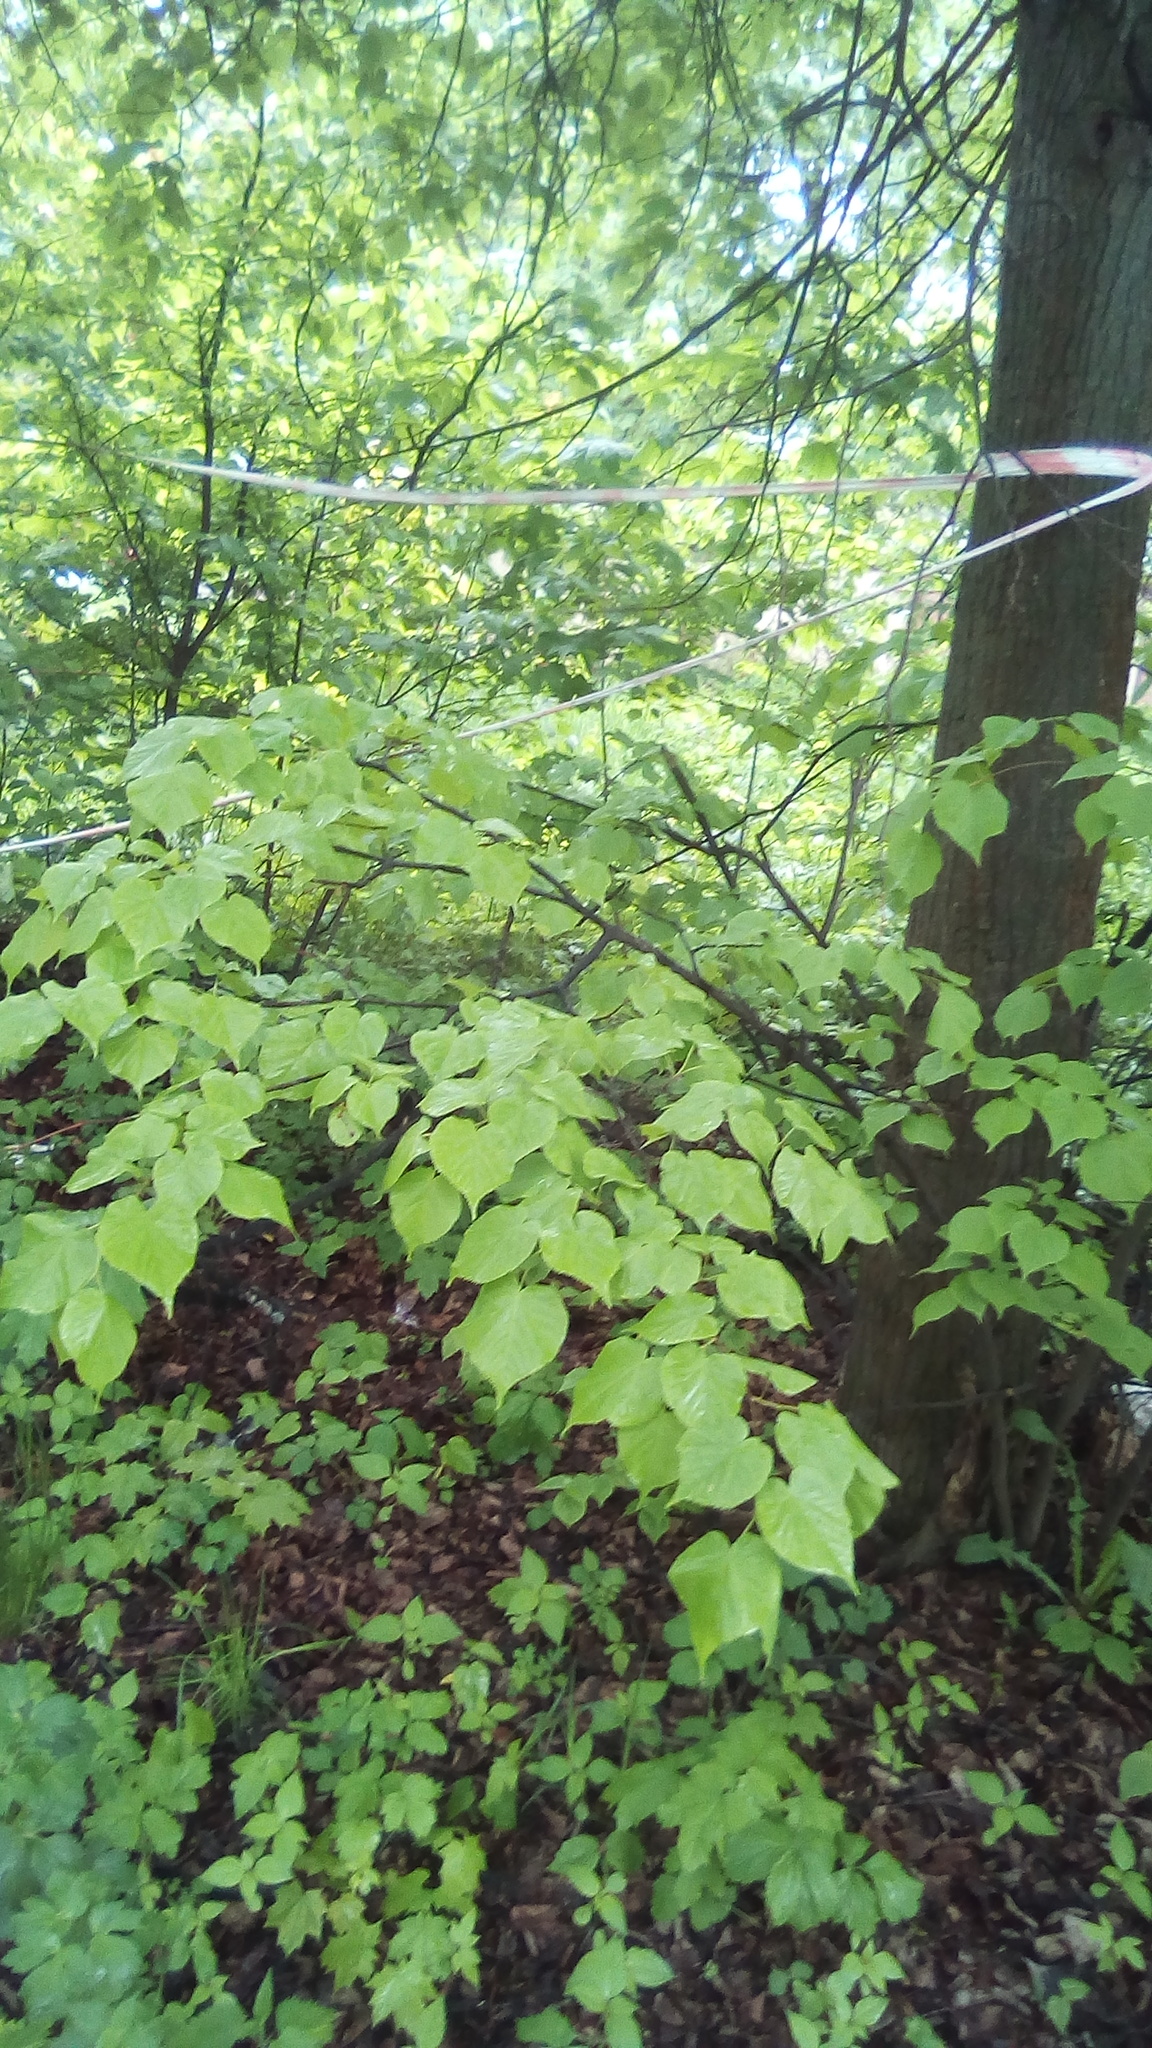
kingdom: Plantae
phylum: Tracheophyta
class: Magnoliopsida
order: Malvales
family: Malvaceae
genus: Tilia
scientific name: Tilia cordata
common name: Small-leaved lime
